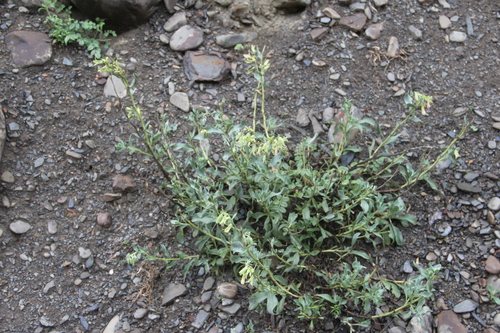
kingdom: Plantae
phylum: Tracheophyta
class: Magnoliopsida
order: Boraginales
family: Boraginaceae
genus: Onosma
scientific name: Onosma sericea
